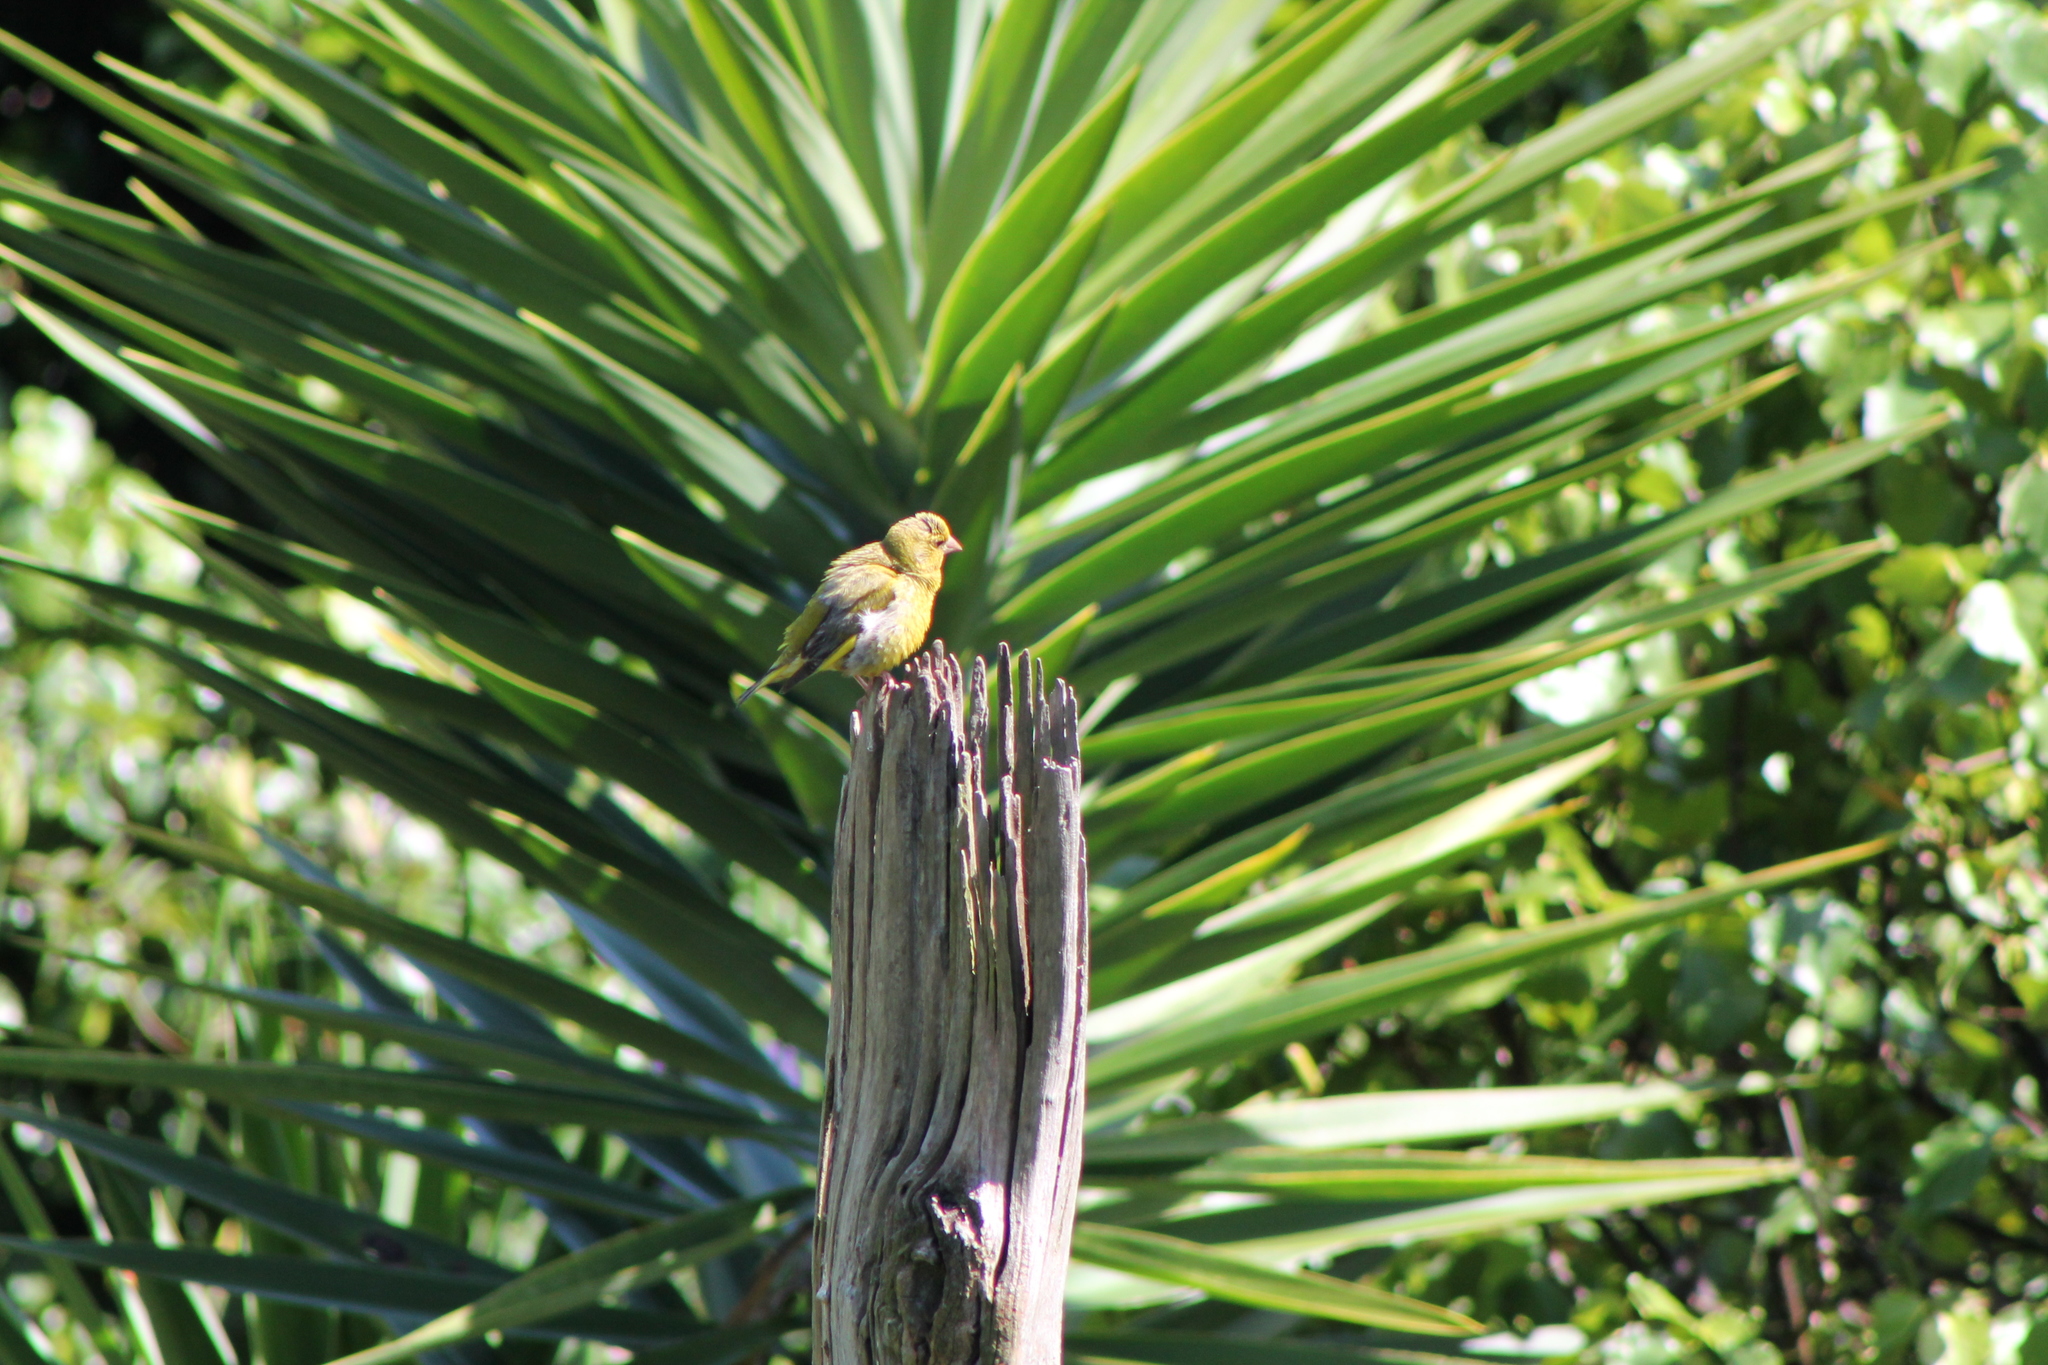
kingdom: Plantae
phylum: Tracheophyta
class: Liliopsida
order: Poales
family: Poaceae
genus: Chloris
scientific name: Chloris chloris
